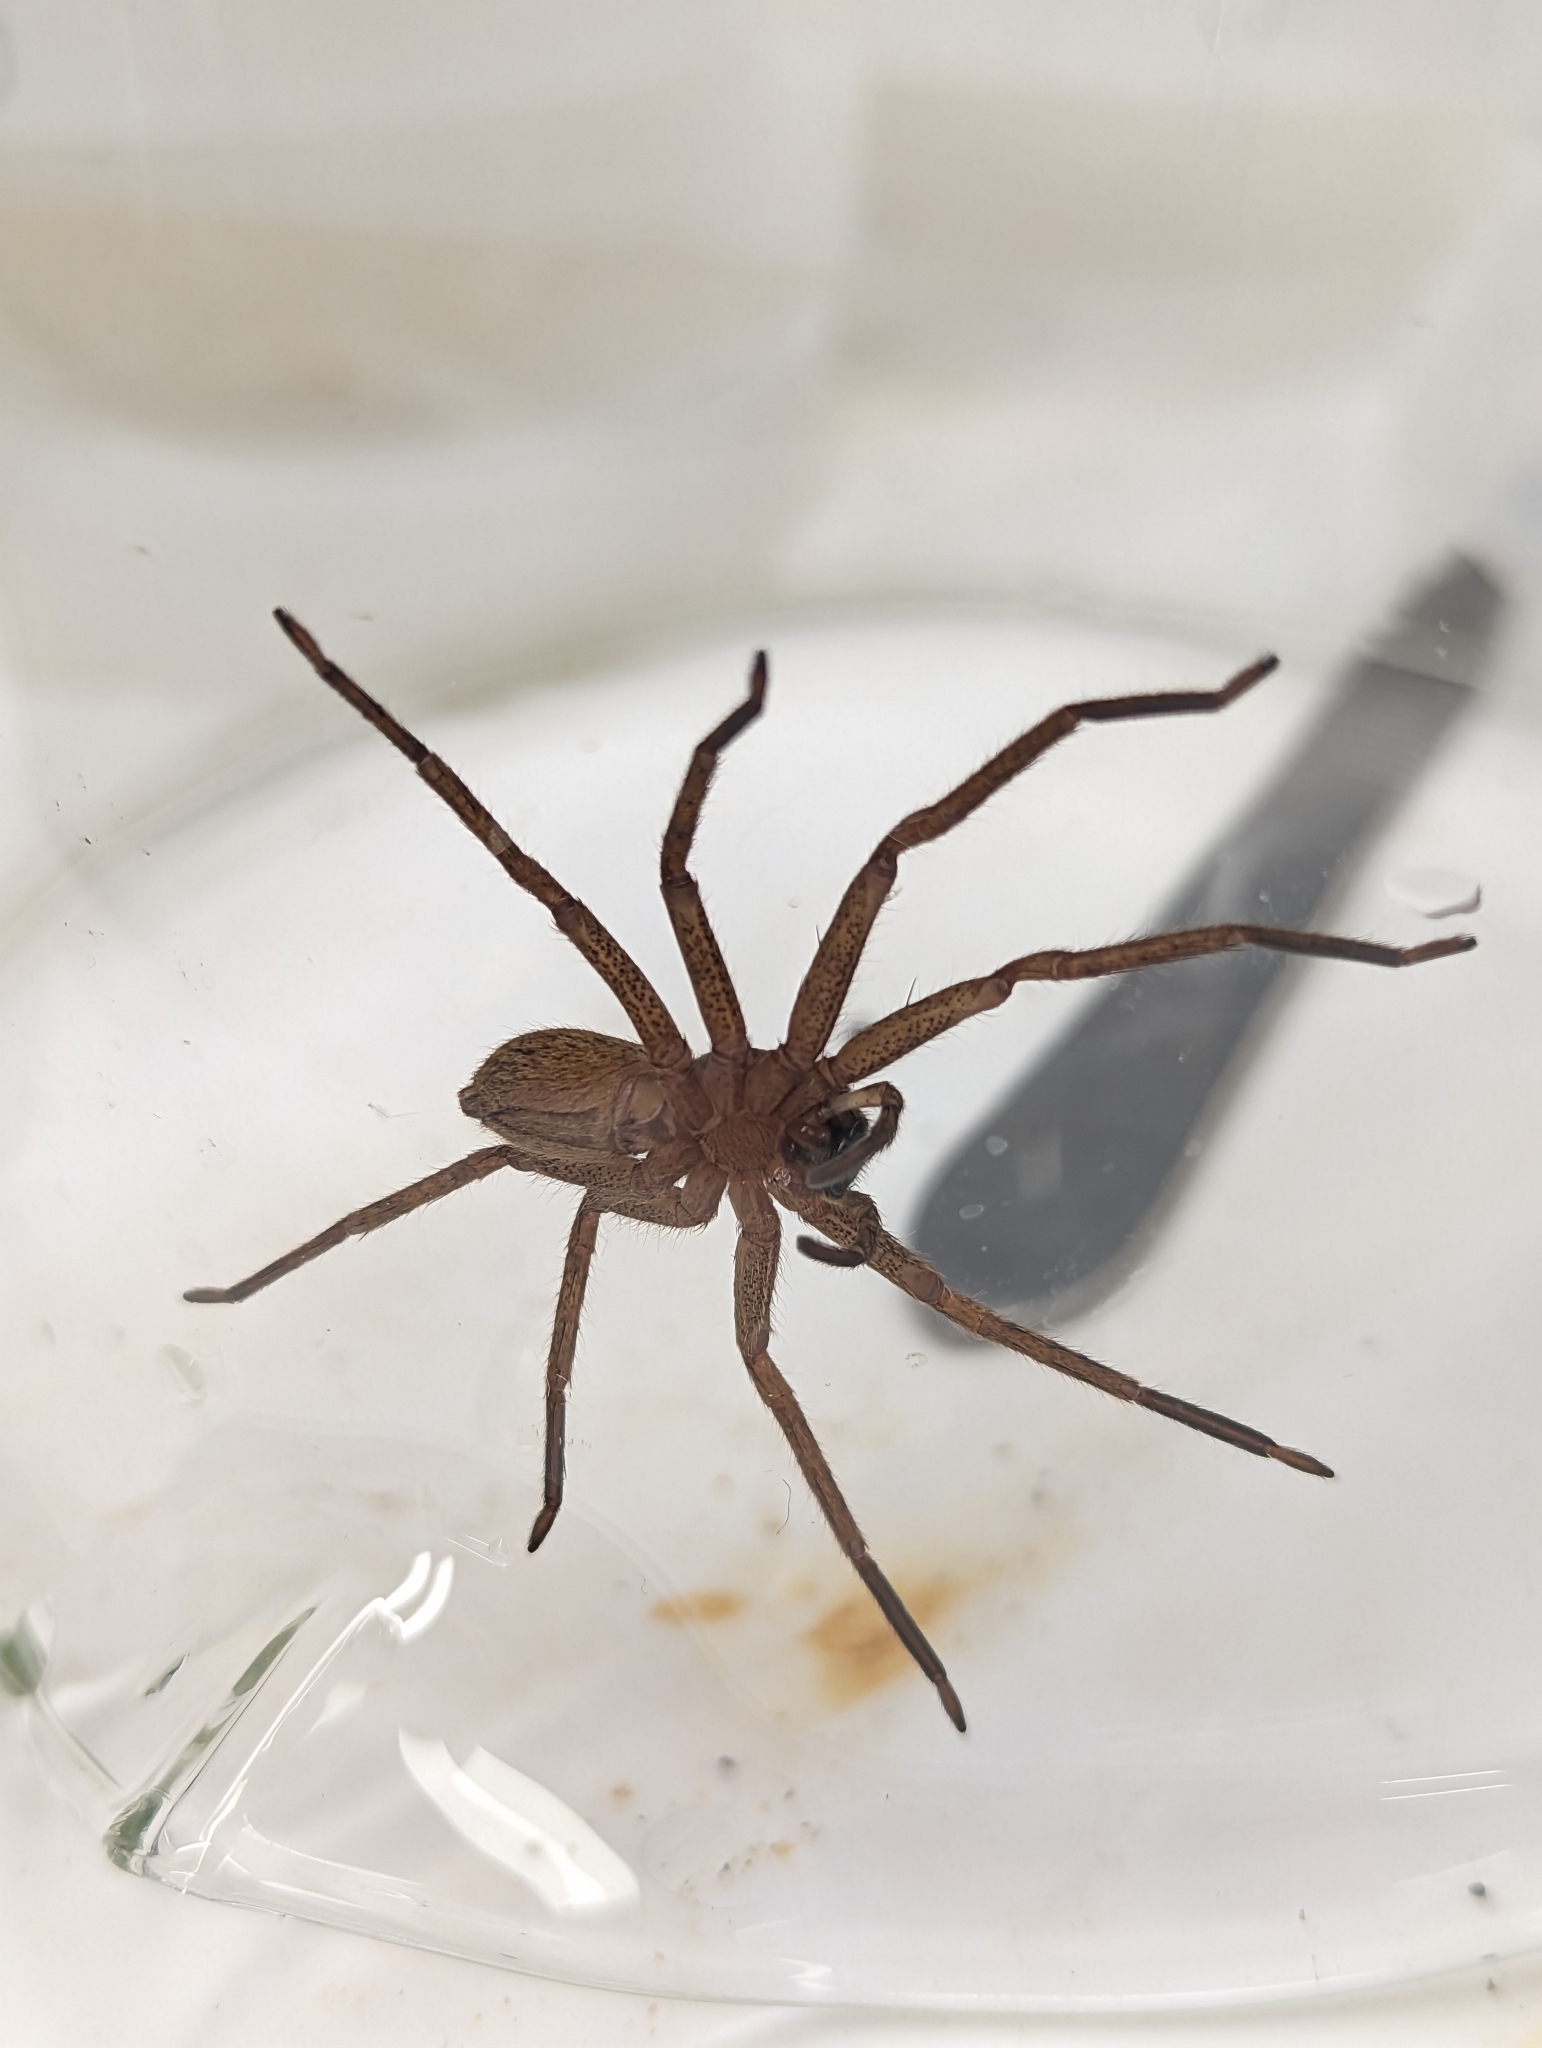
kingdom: Animalia
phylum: Arthropoda
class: Arachnida
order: Araneae
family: Sparassidae
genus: Heteropoda
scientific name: Heteropoda jugulans
